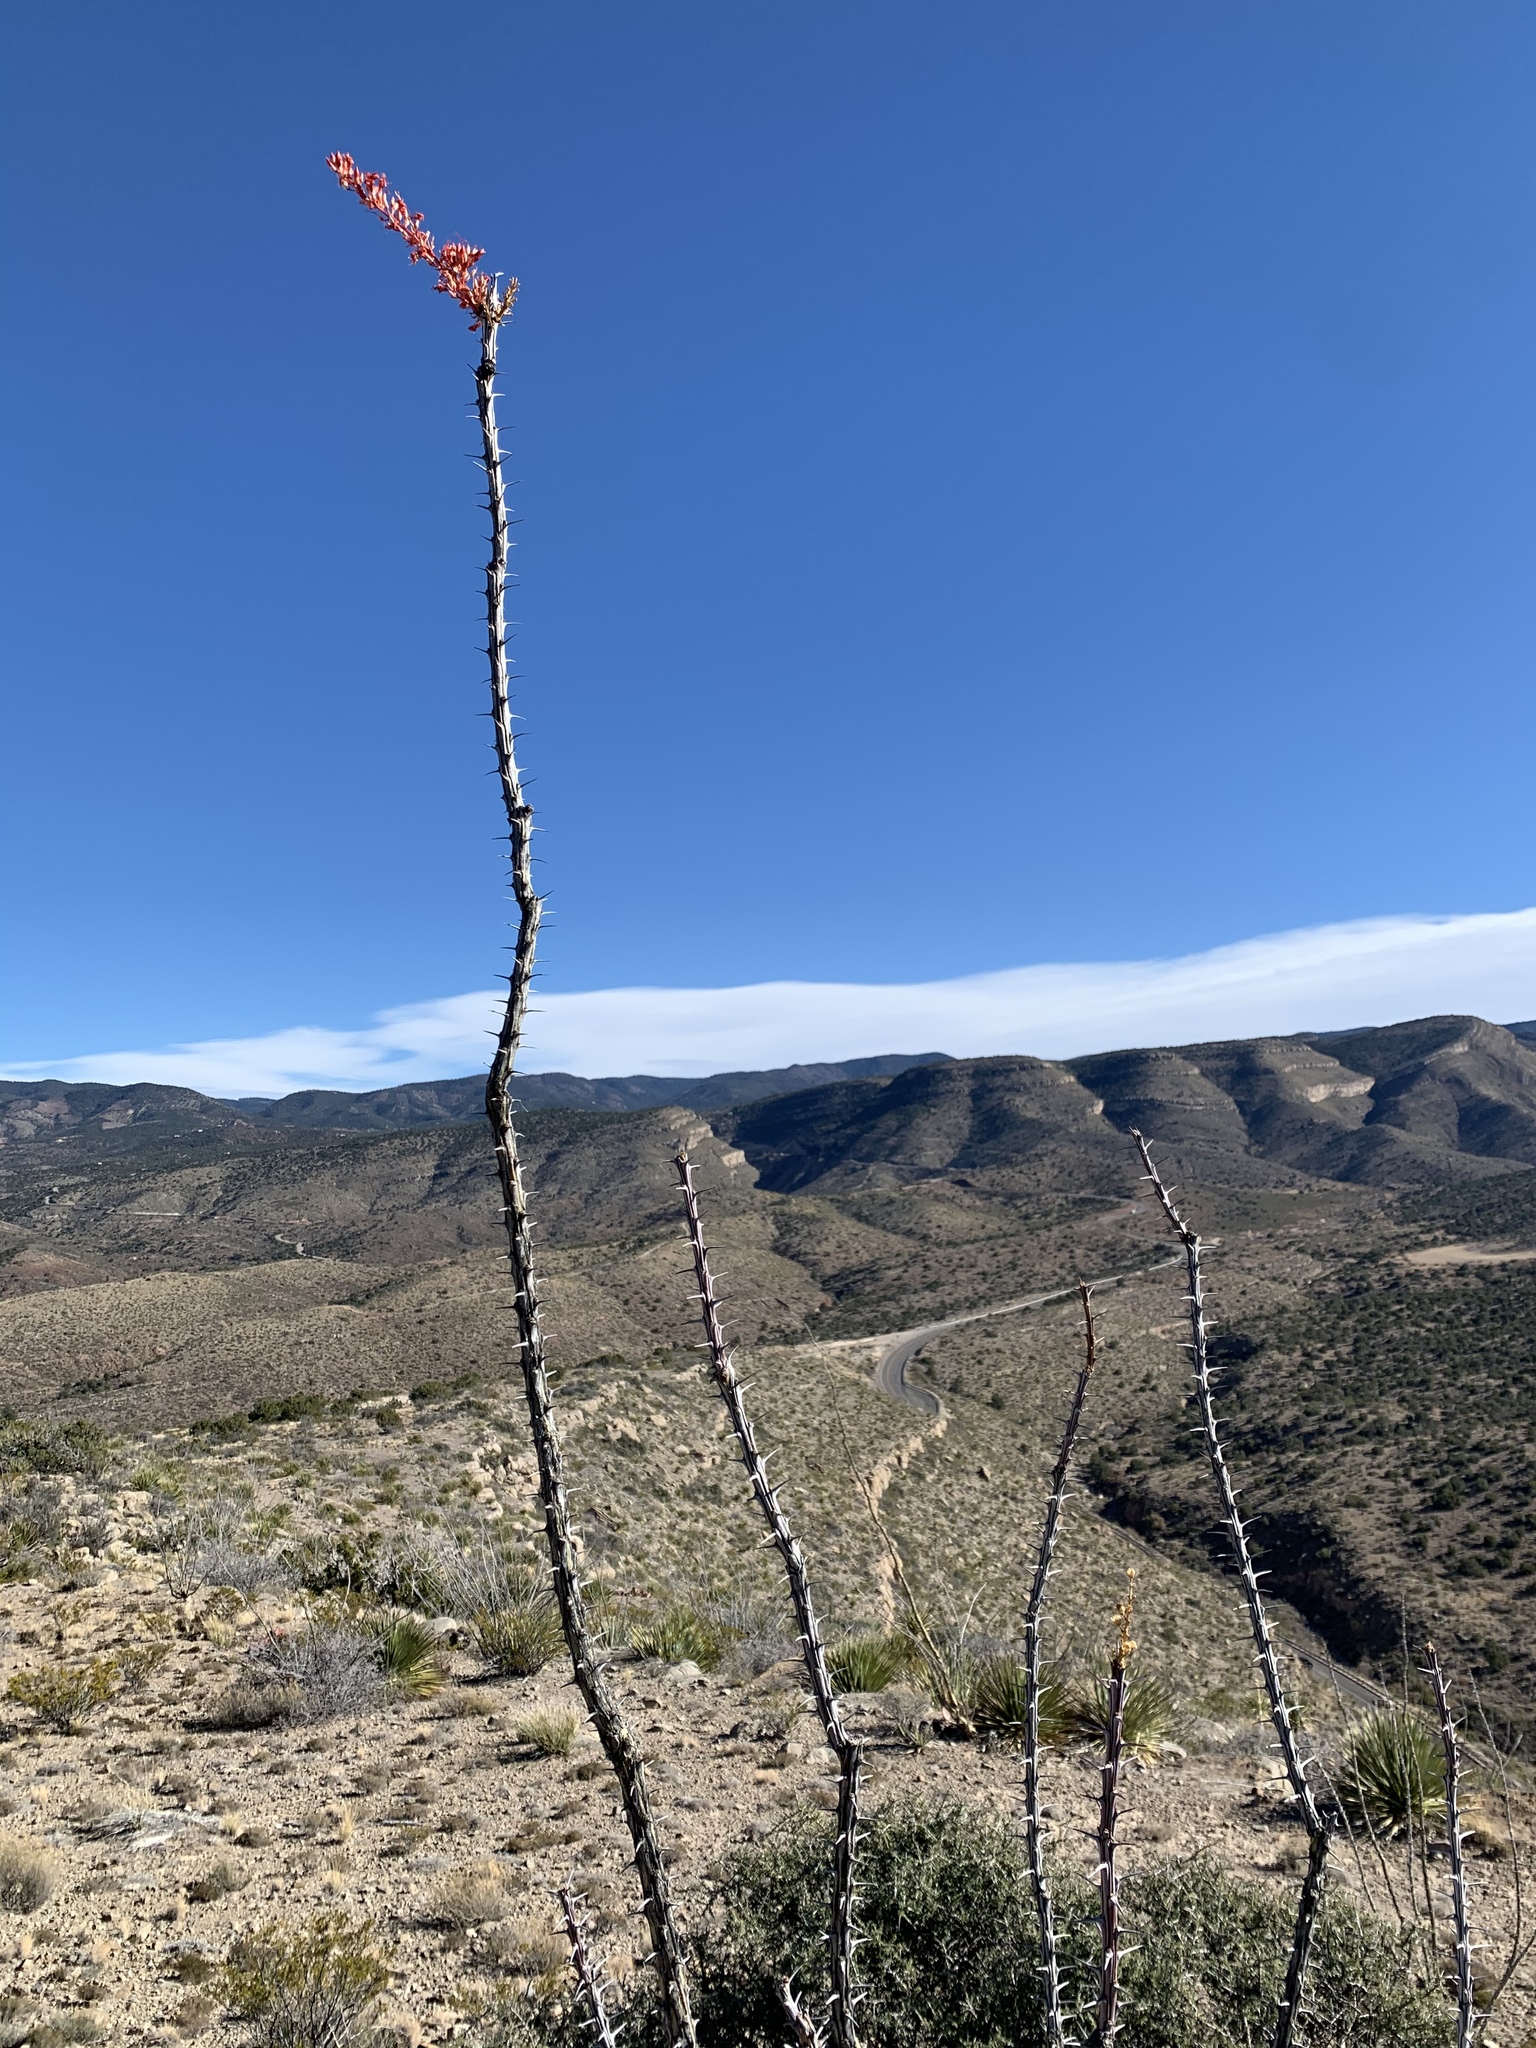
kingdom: Plantae
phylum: Tracheophyta
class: Magnoliopsida
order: Ericales
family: Fouquieriaceae
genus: Fouquieria
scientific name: Fouquieria splendens
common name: Vine-cactus
